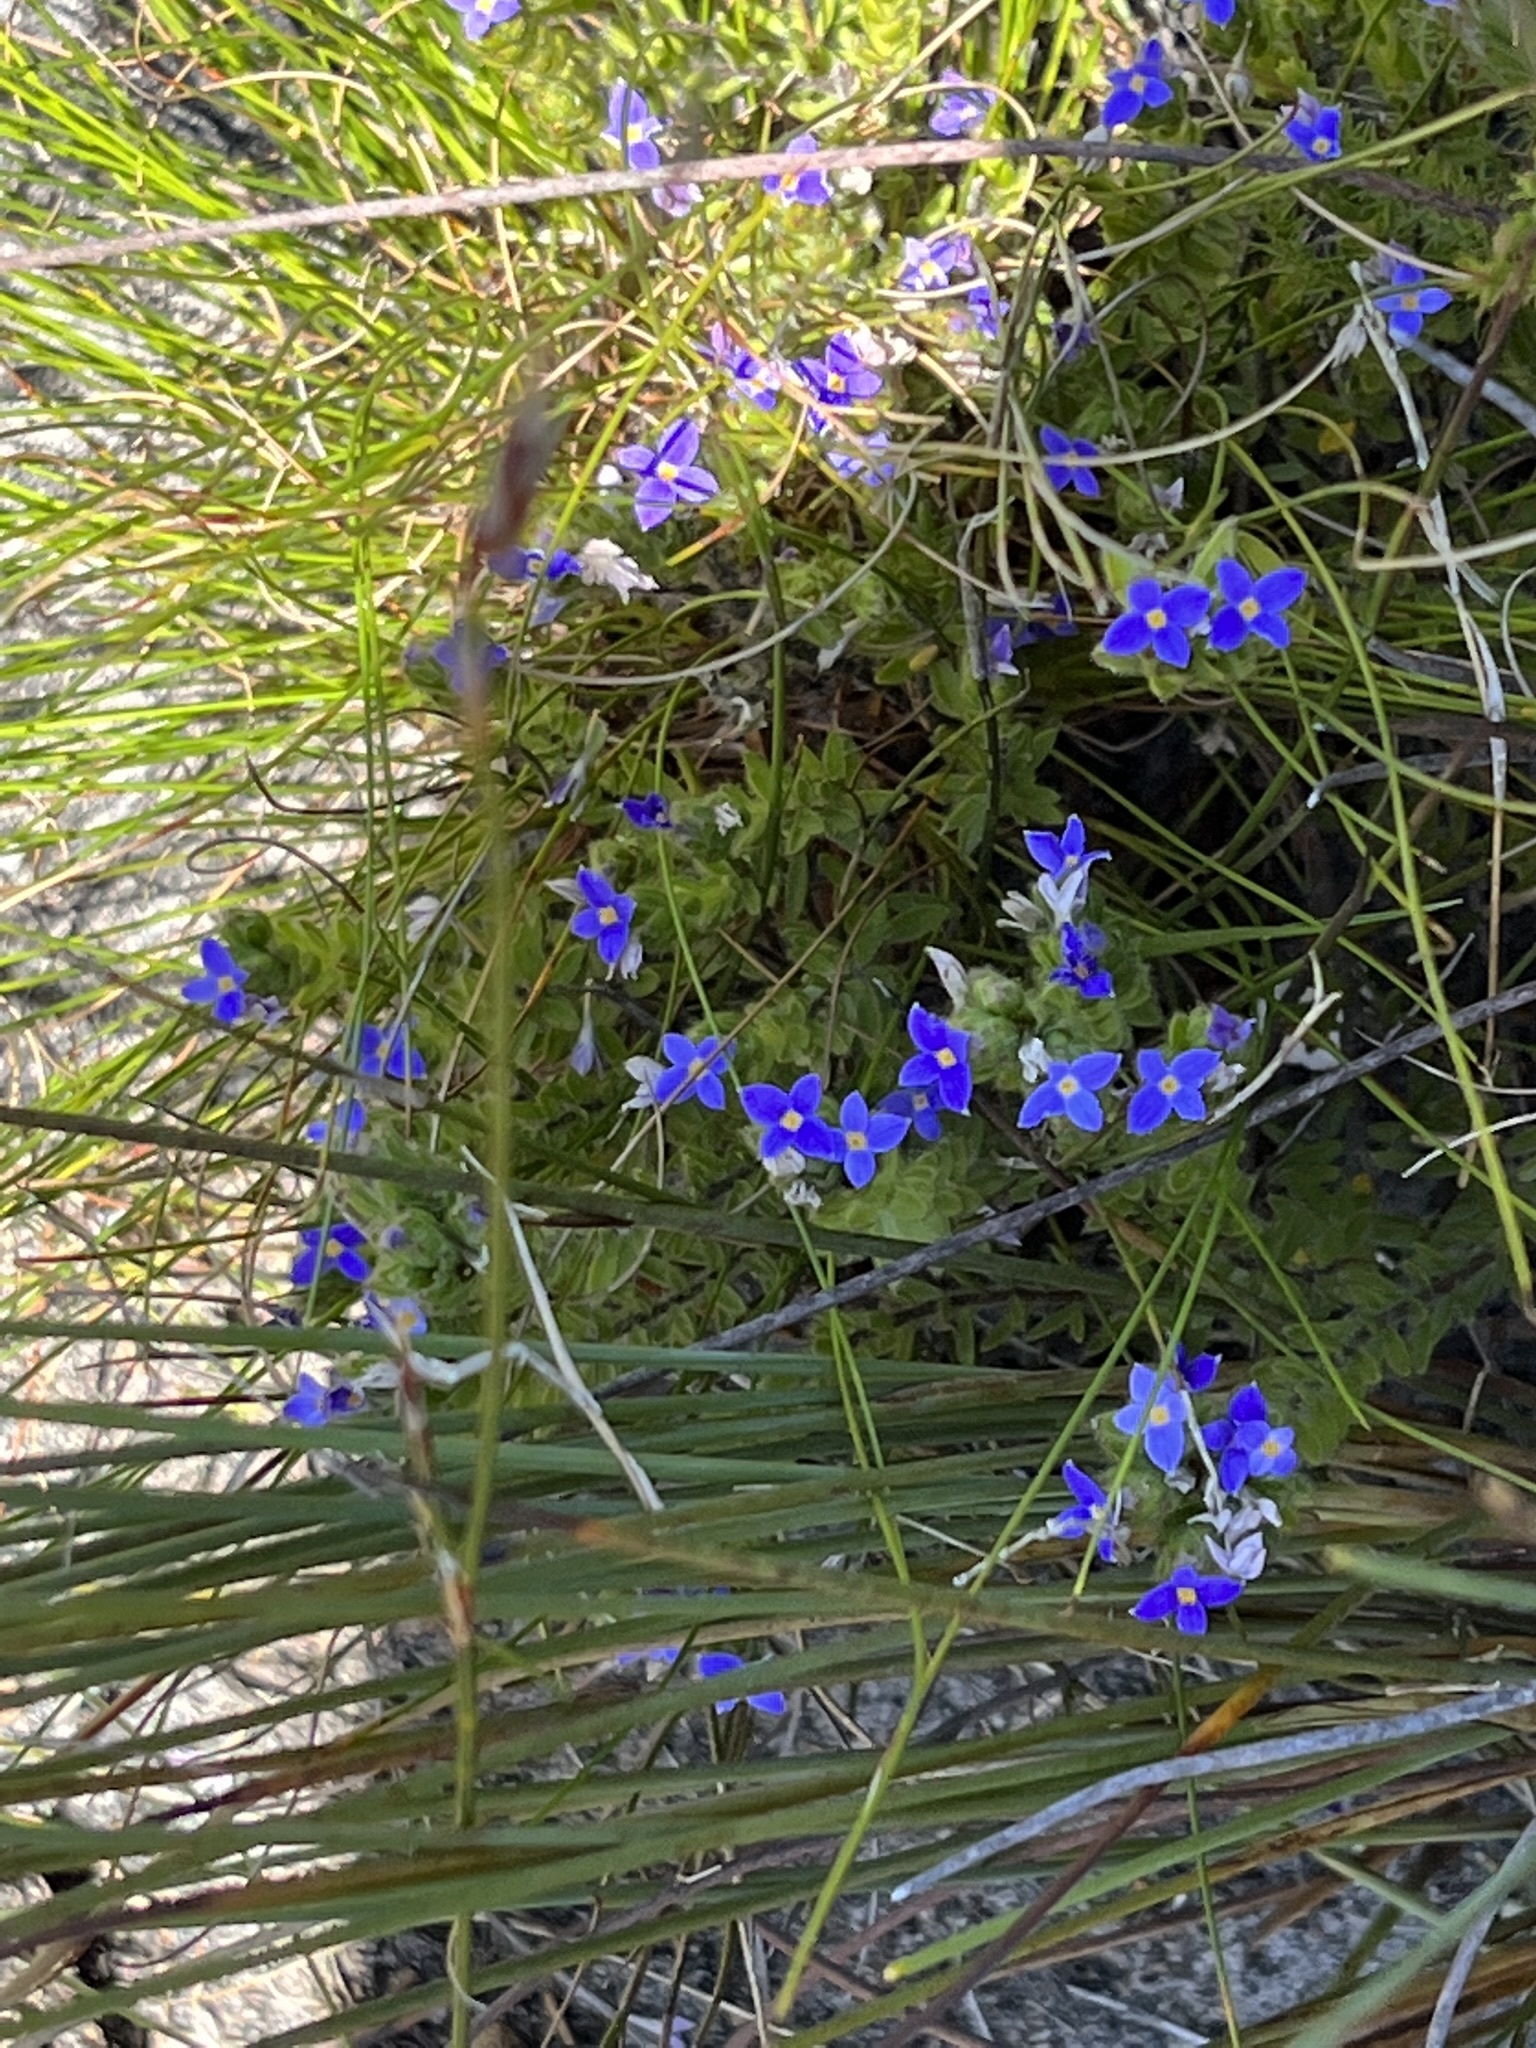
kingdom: Plantae
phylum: Tracheophyta
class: Magnoliopsida
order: Malvales
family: Thymelaeaceae
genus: Gnidia
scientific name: Gnidia penicillata
